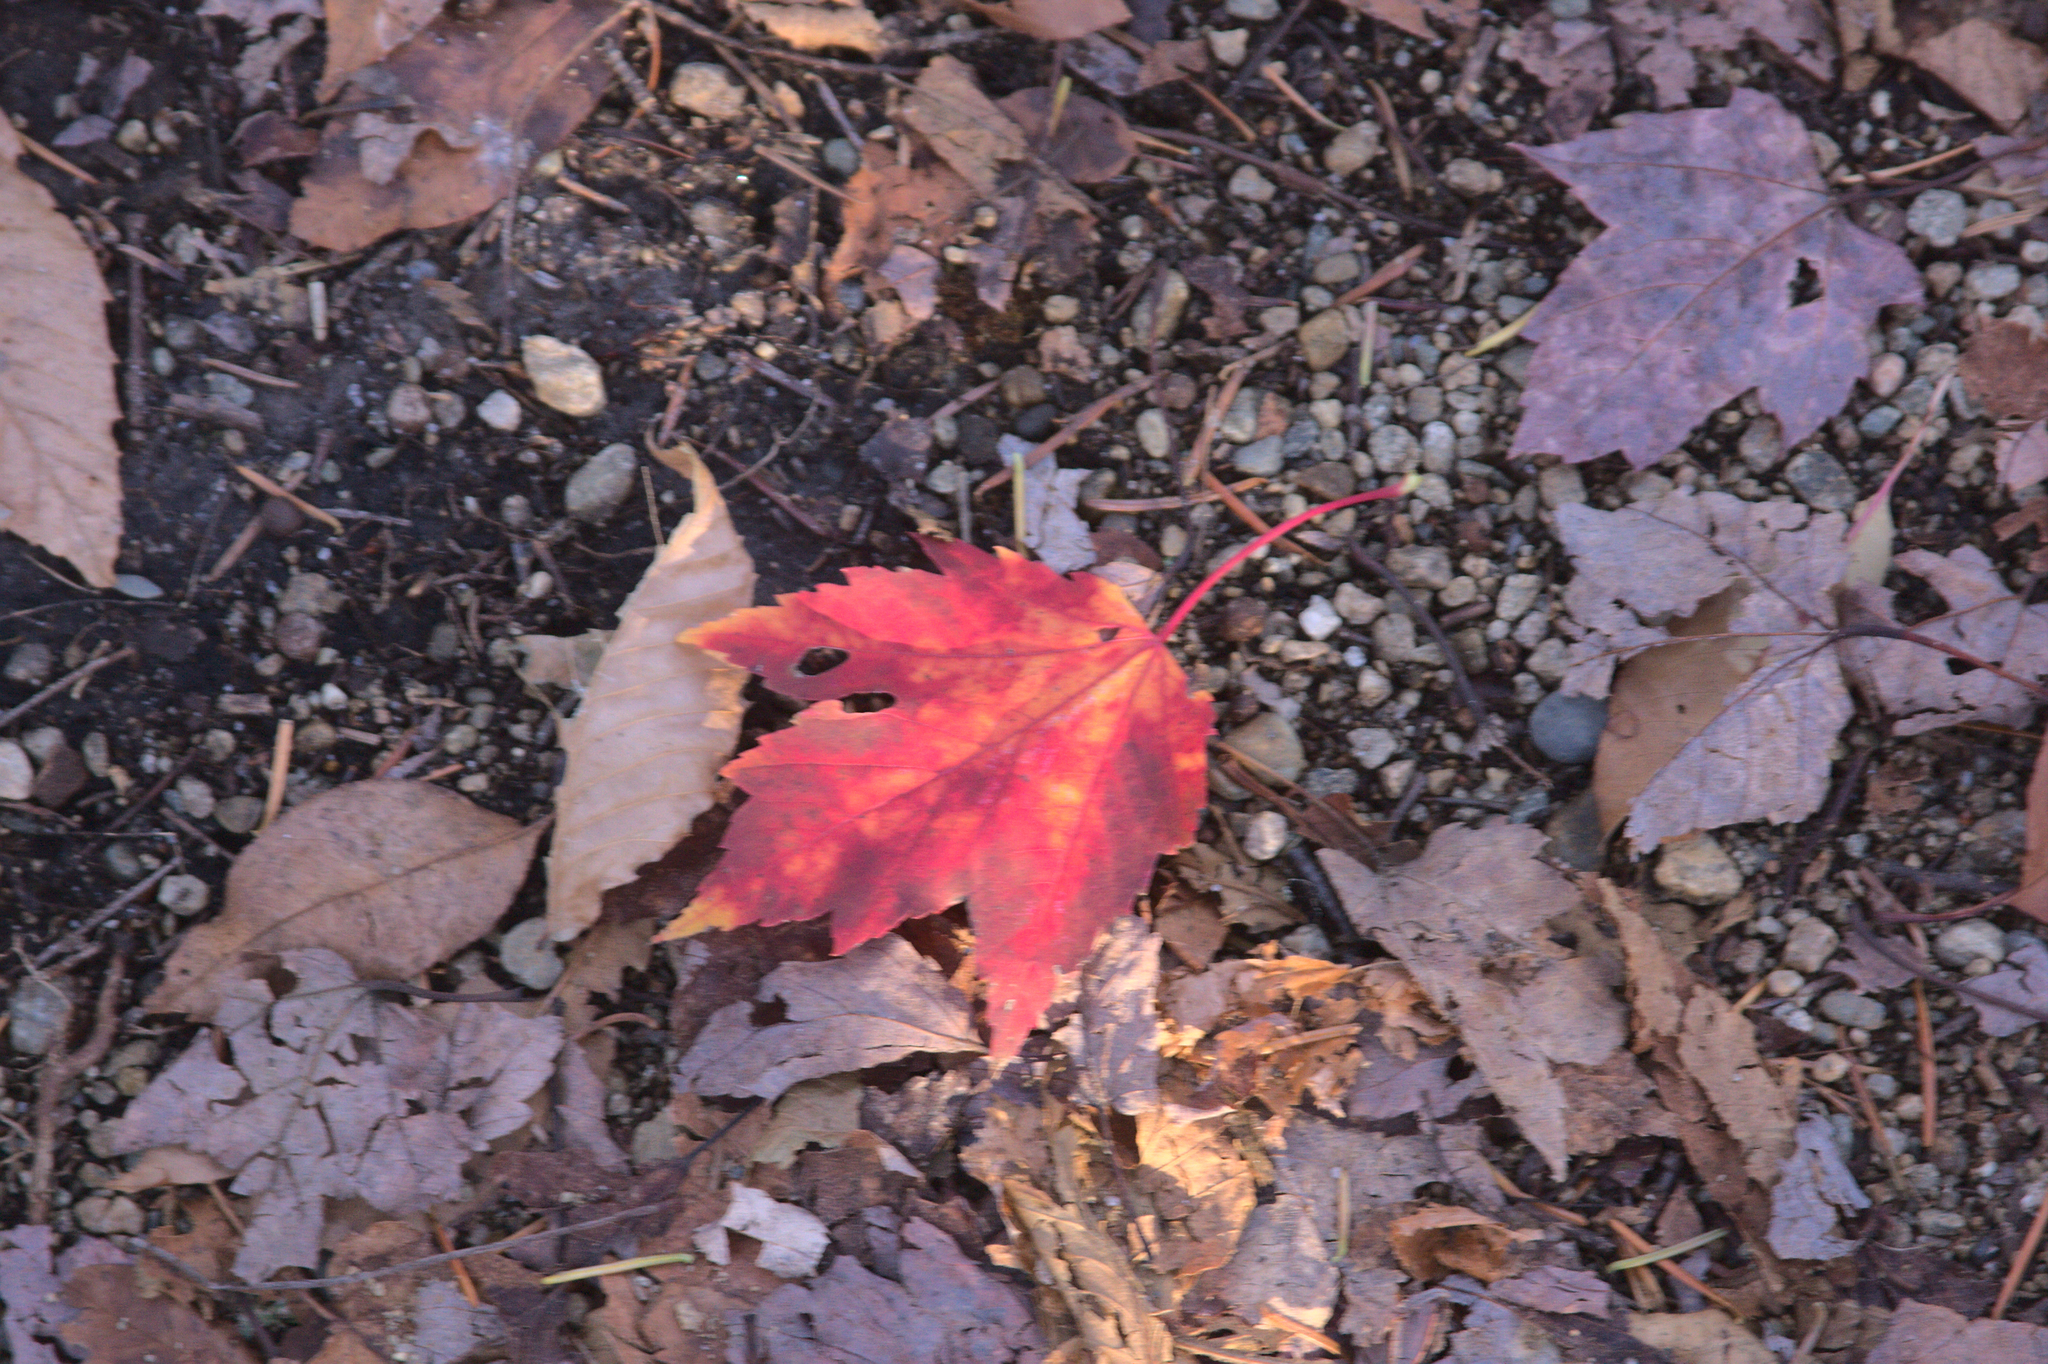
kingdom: Plantae
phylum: Tracheophyta
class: Magnoliopsida
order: Sapindales
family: Sapindaceae
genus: Acer
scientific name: Acer rubrum
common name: Red maple
